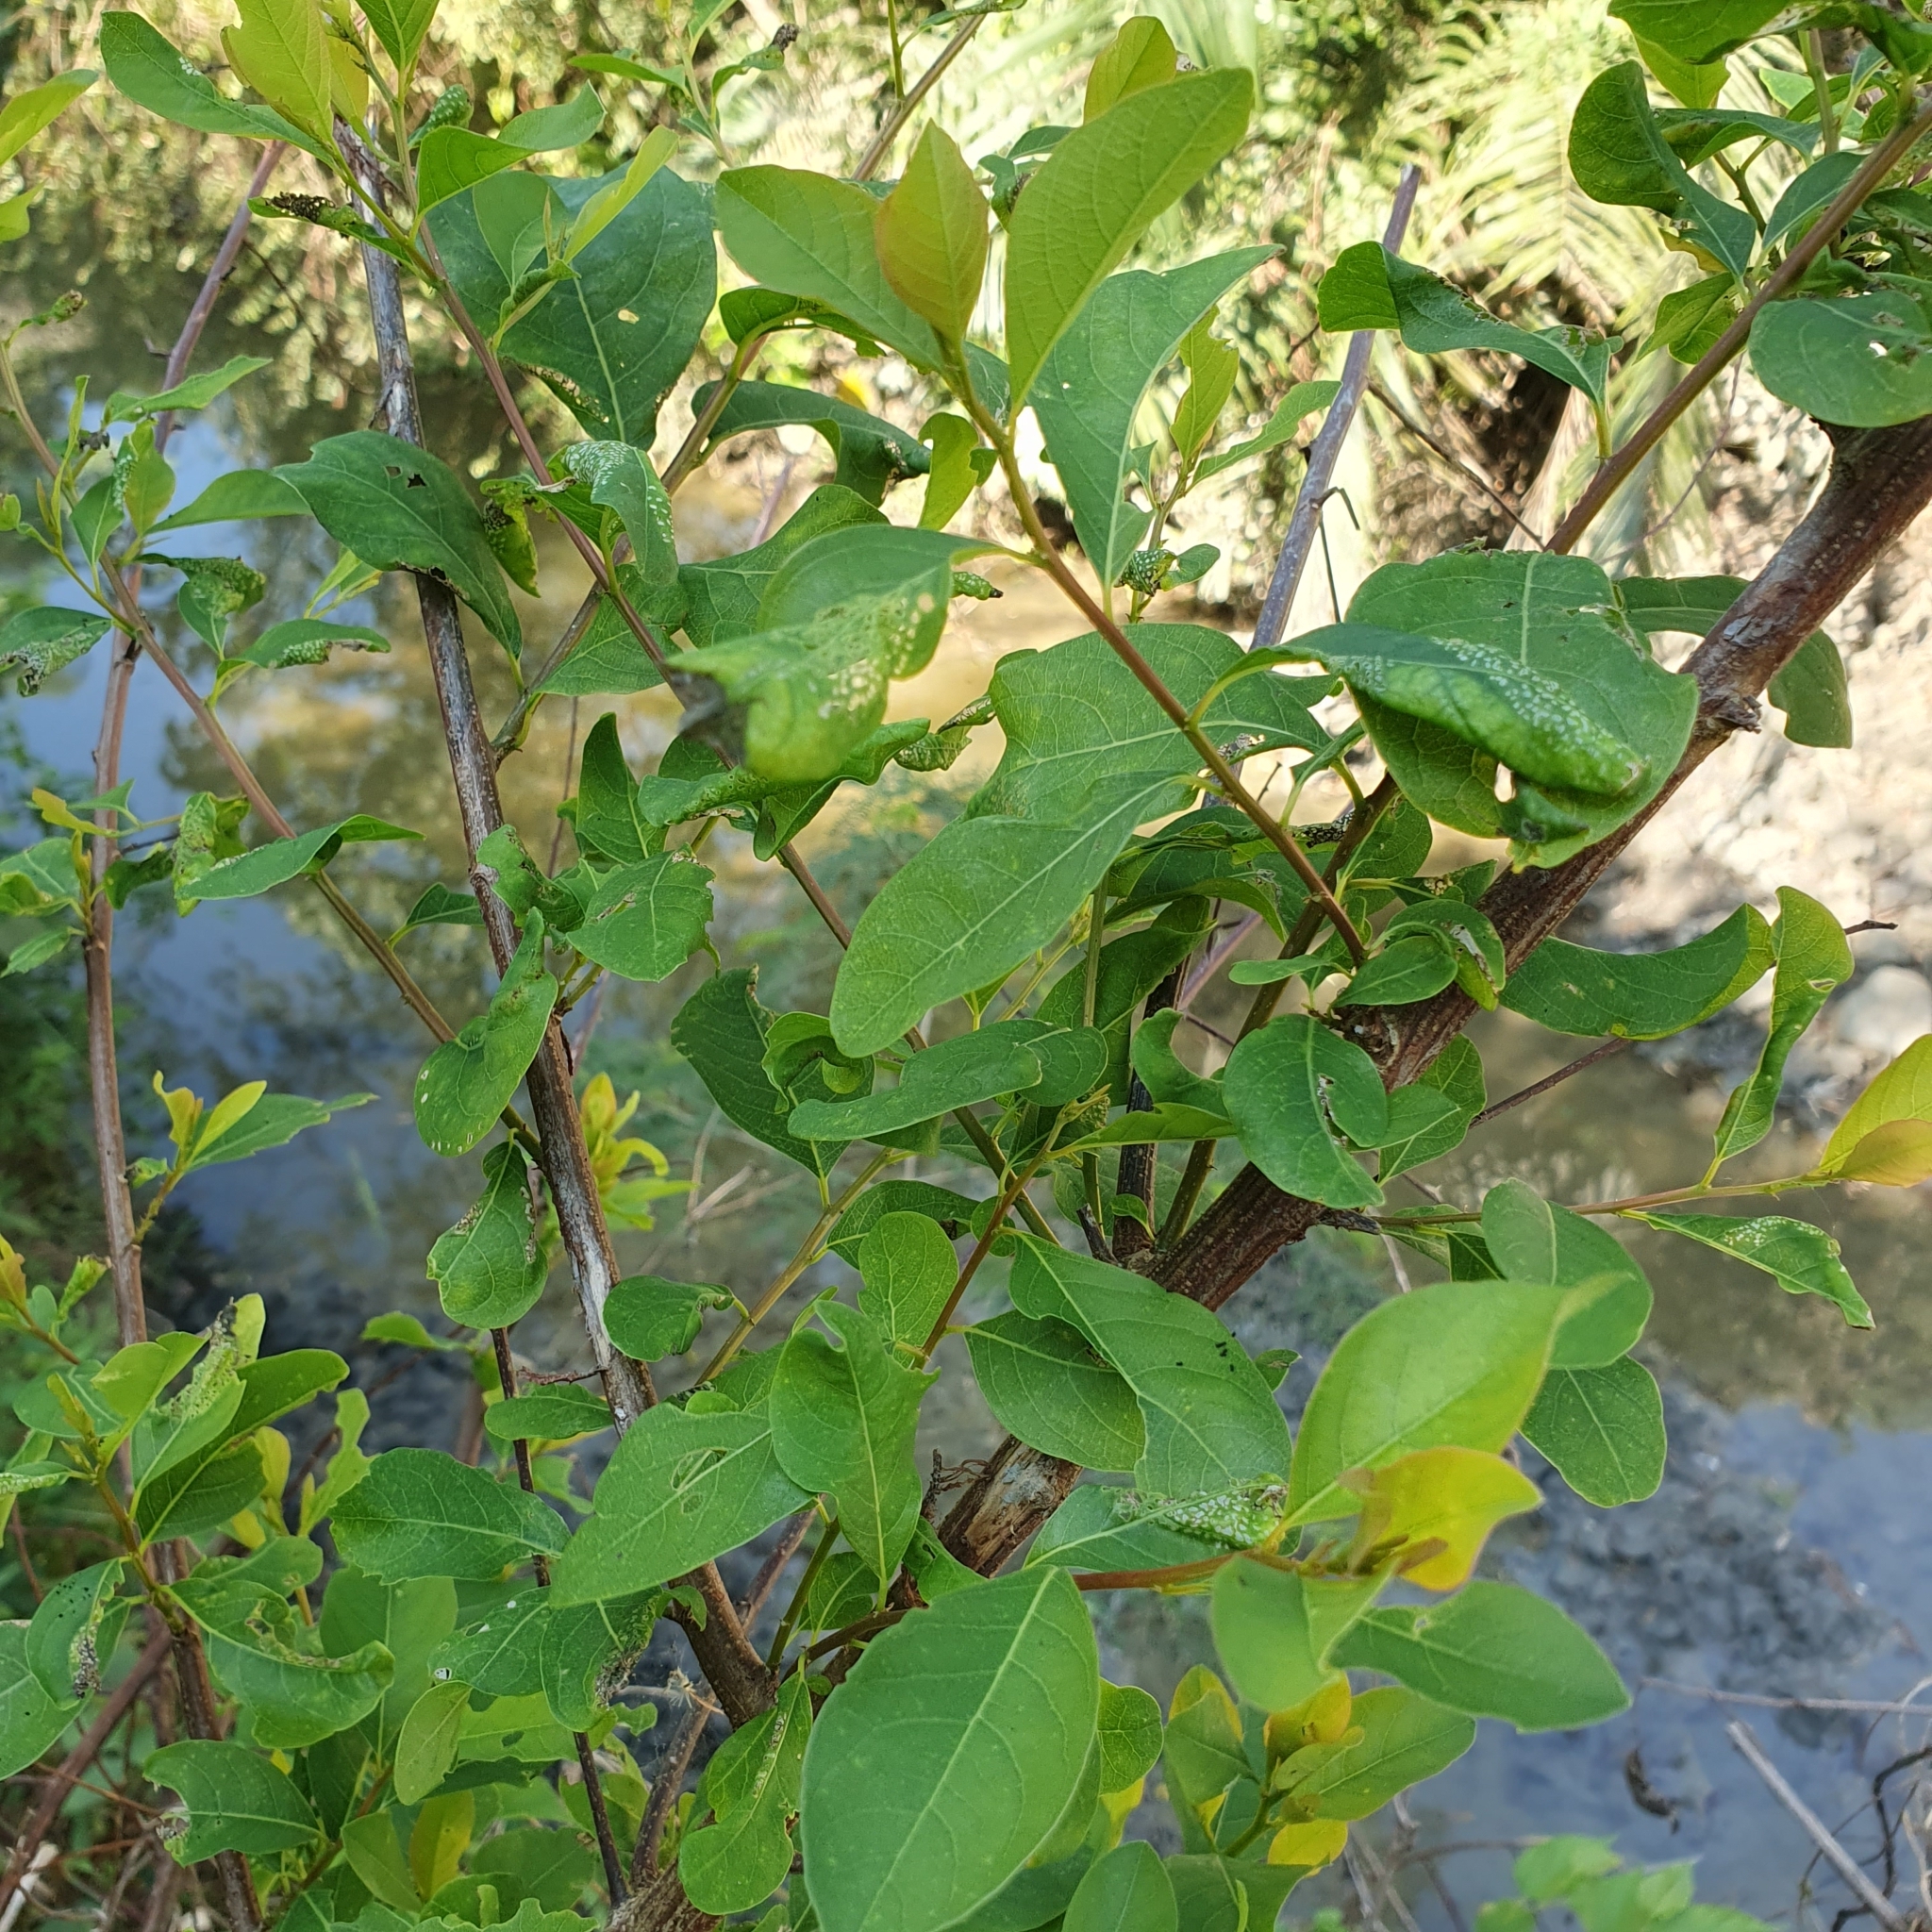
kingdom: Plantae
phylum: Tracheophyta
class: Magnoliopsida
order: Malpighiales
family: Phyllanthaceae
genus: Flueggea
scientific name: Flueggea virosa
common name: Common bushweed
